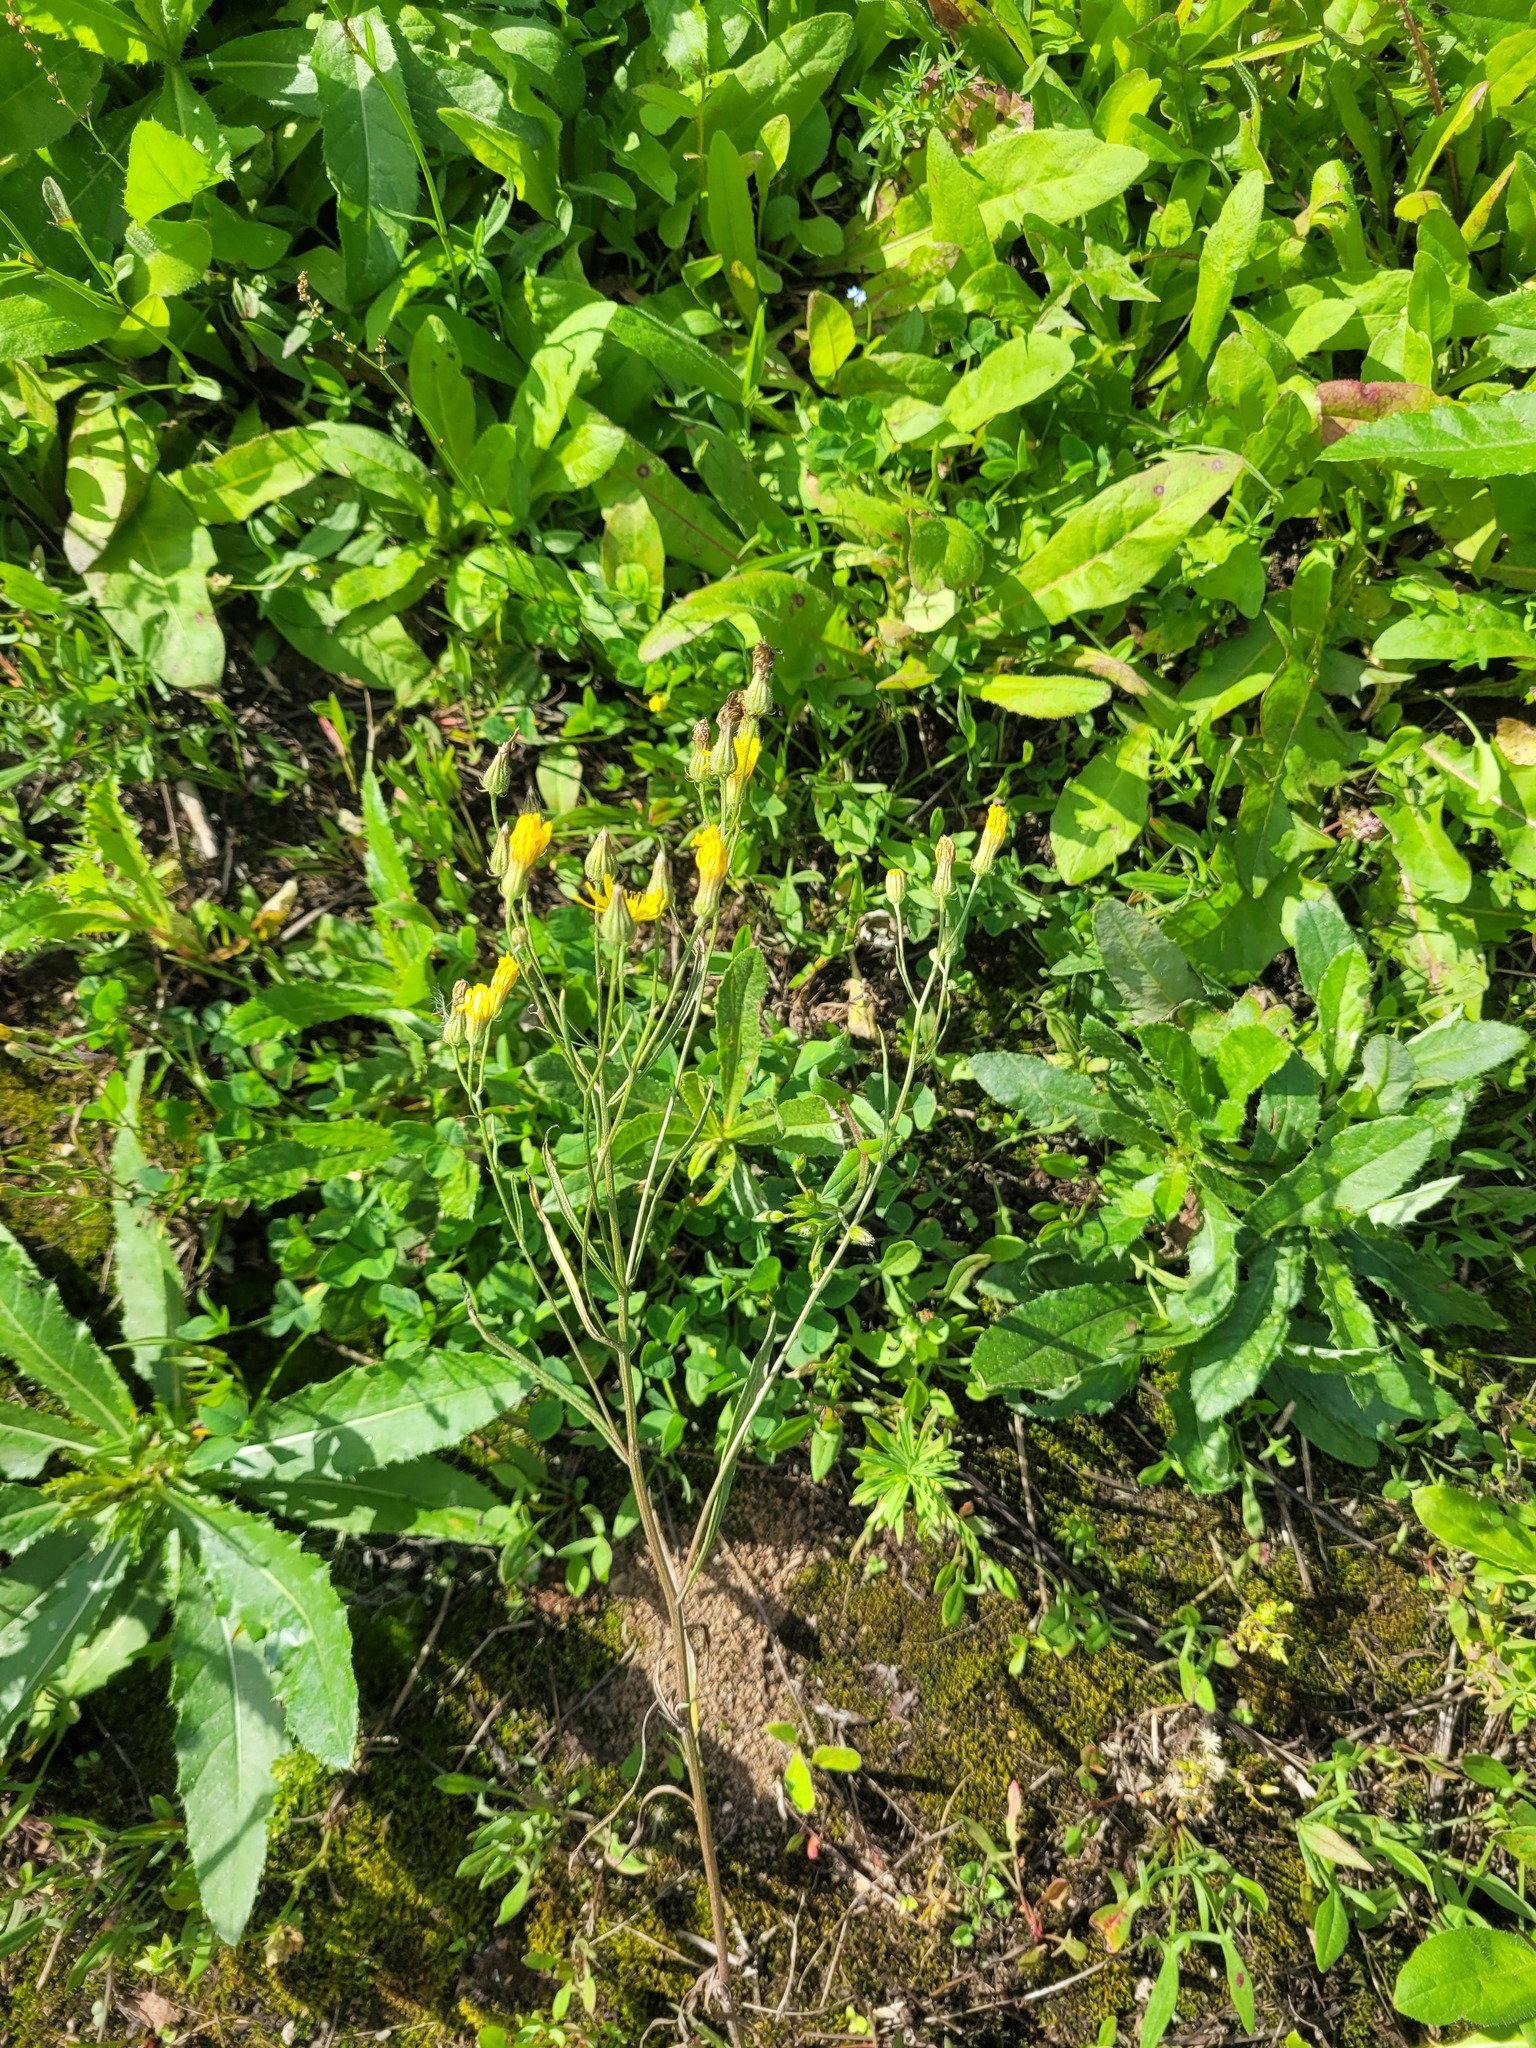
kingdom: Plantae
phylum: Tracheophyta
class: Magnoliopsida
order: Asterales
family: Asteraceae
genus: Crepis
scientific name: Crepis tectorum
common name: Narrow-leaved hawk's-beard
